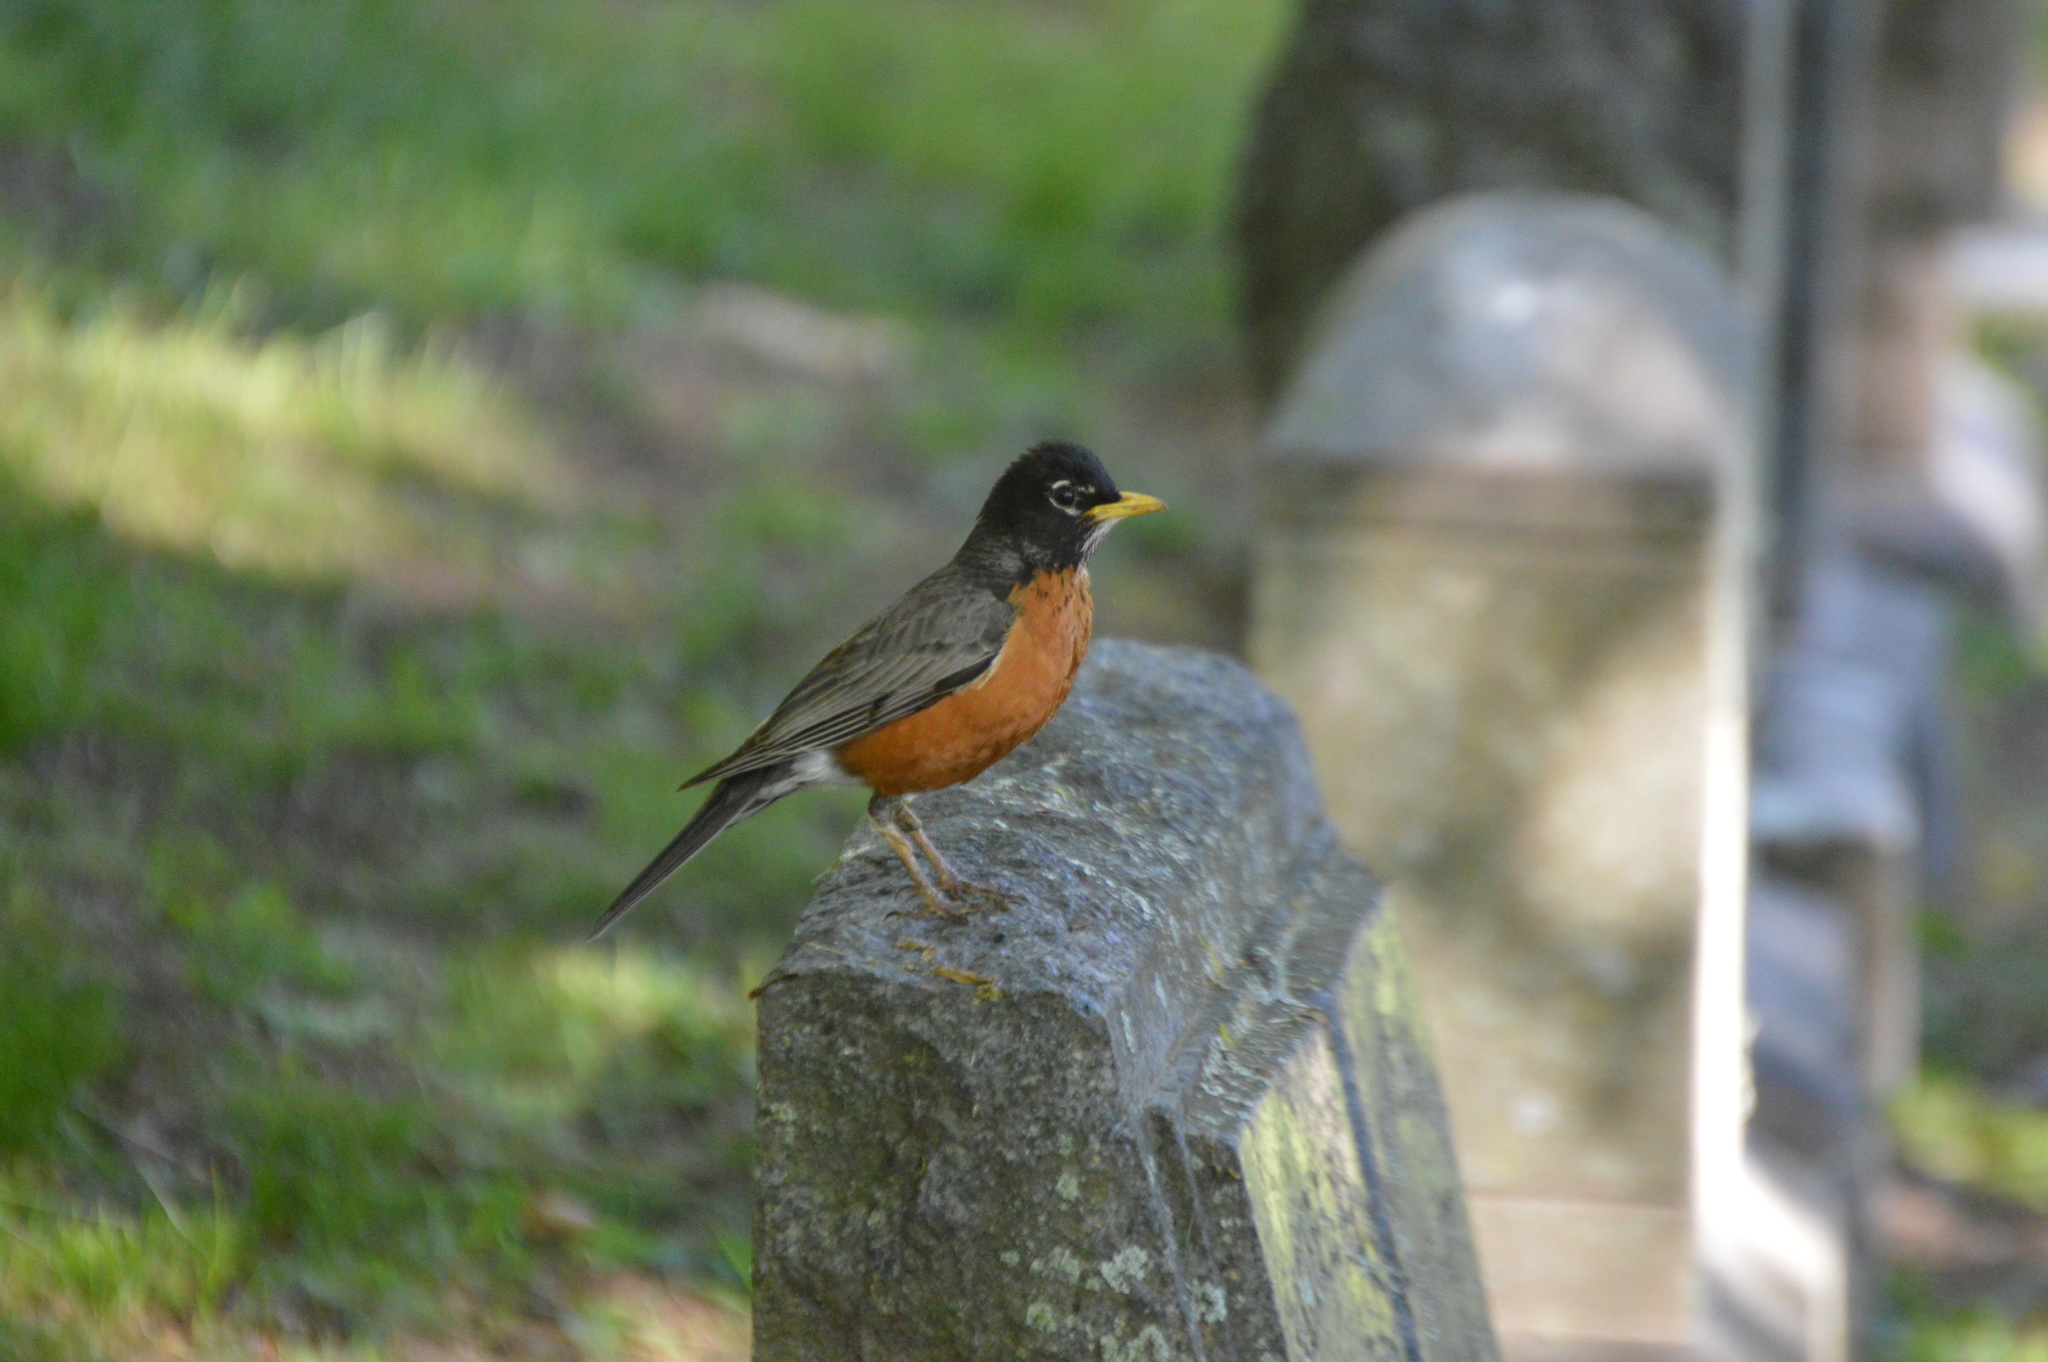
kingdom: Animalia
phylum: Chordata
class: Aves
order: Passeriformes
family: Turdidae
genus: Turdus
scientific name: Turdus migratorius
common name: American robin
